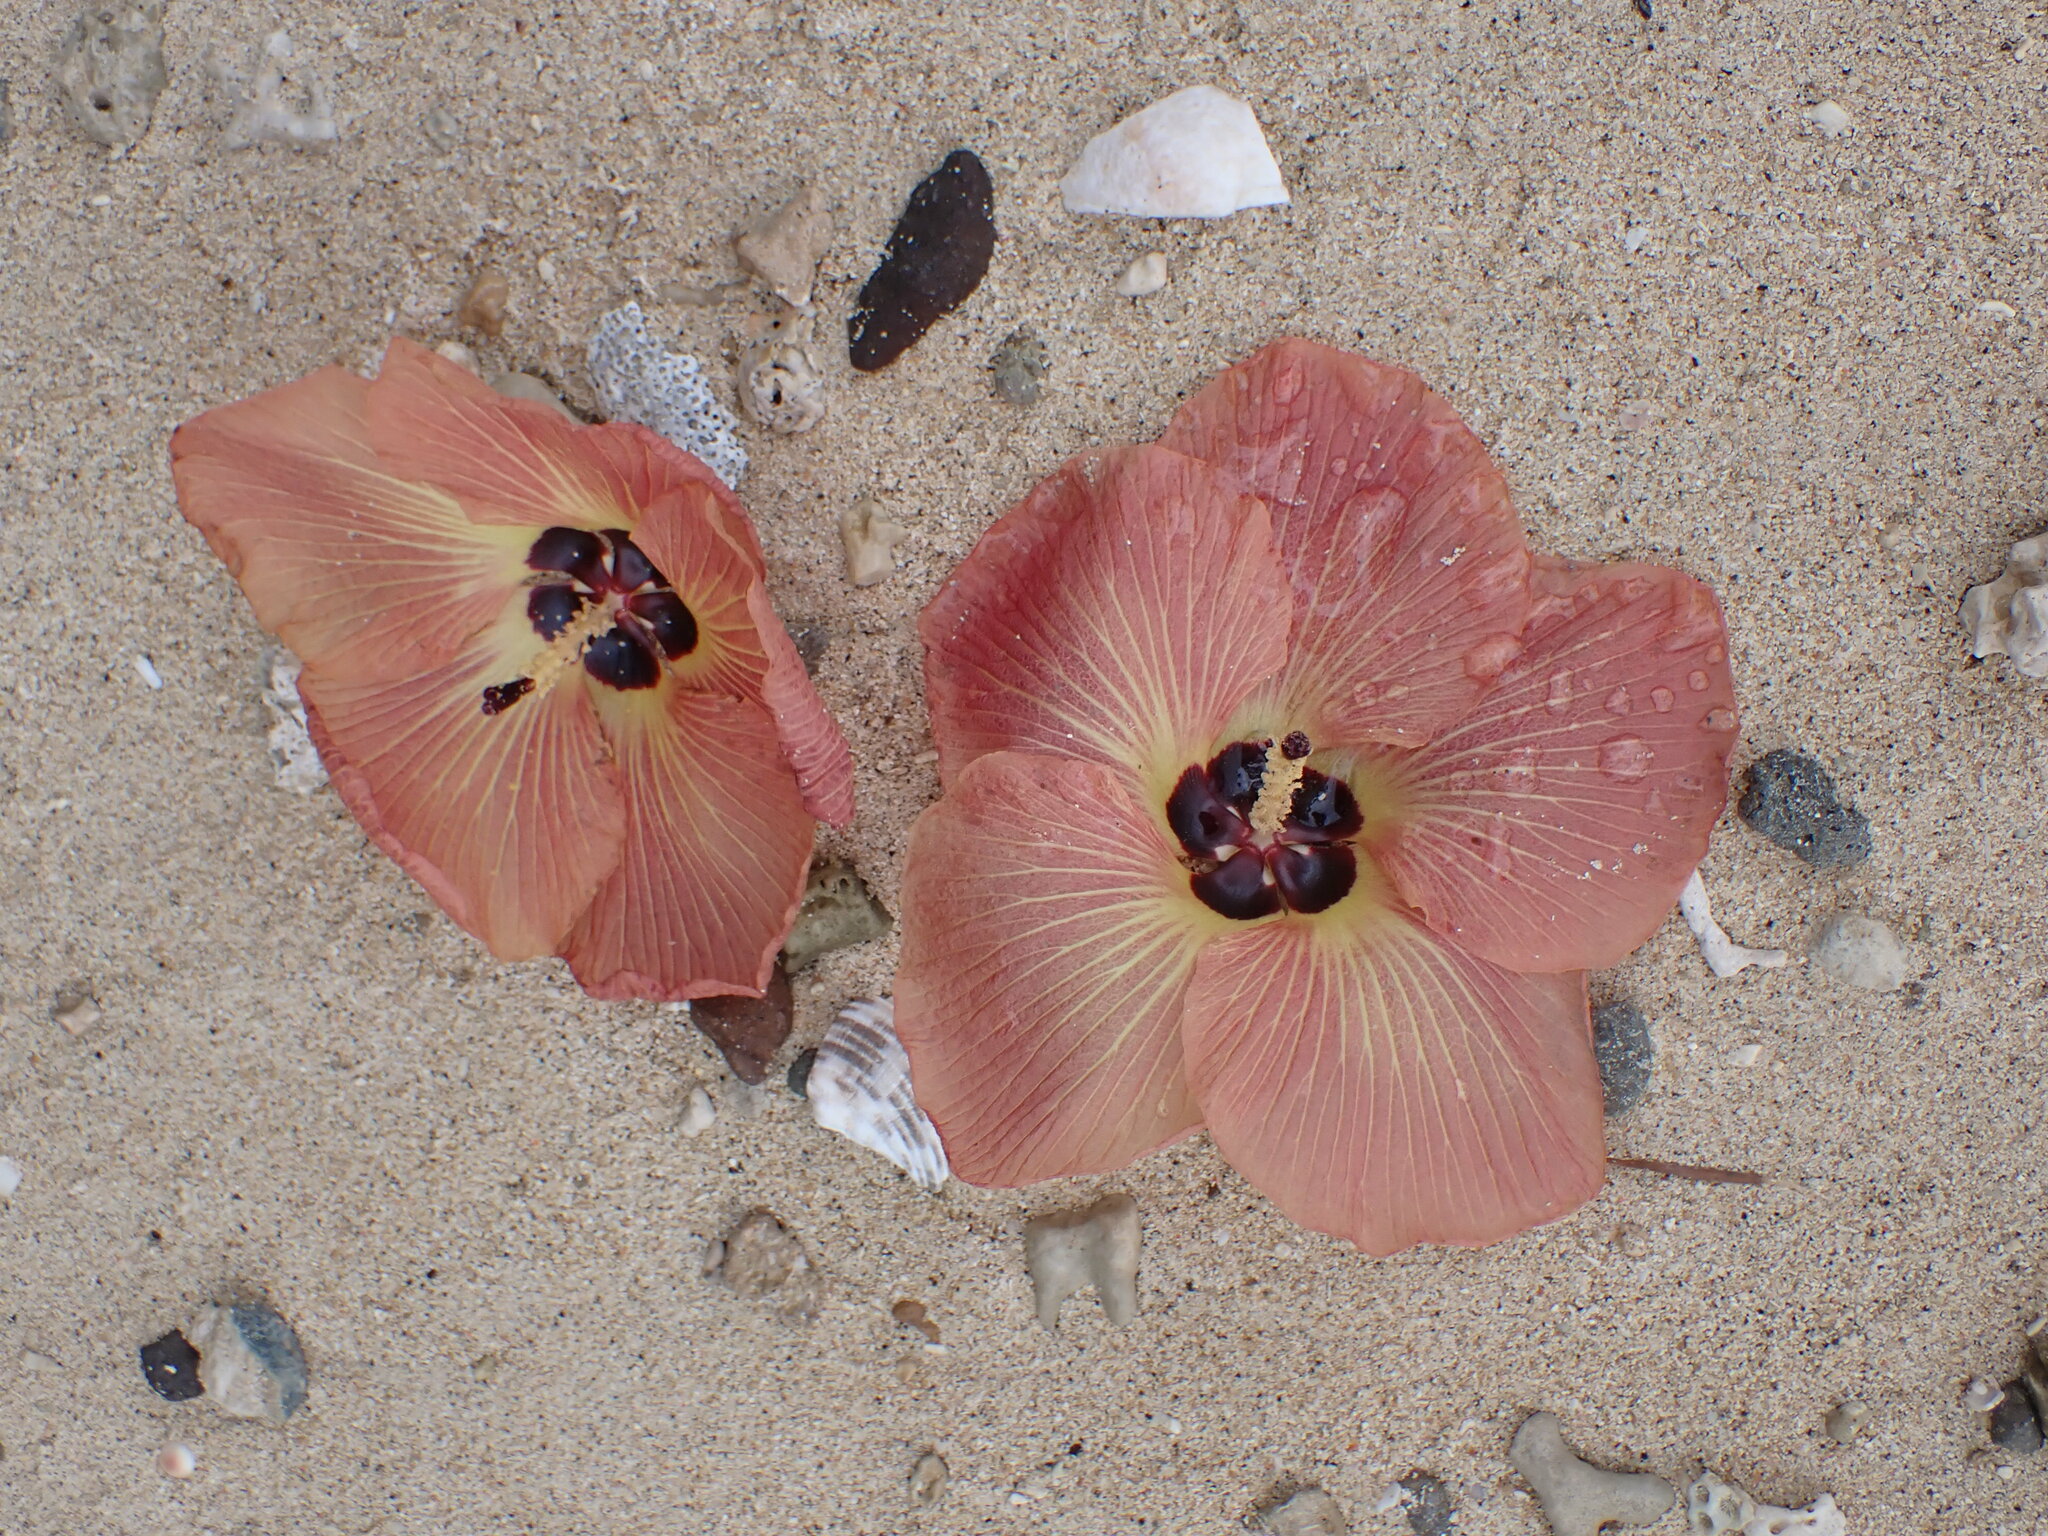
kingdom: Plantae
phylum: Tracheophyta
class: Magnoliopsida
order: Malvales
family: Malvaceae
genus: Talipariti
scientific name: Talipariti tiliaceum
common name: Sea hibiscus
